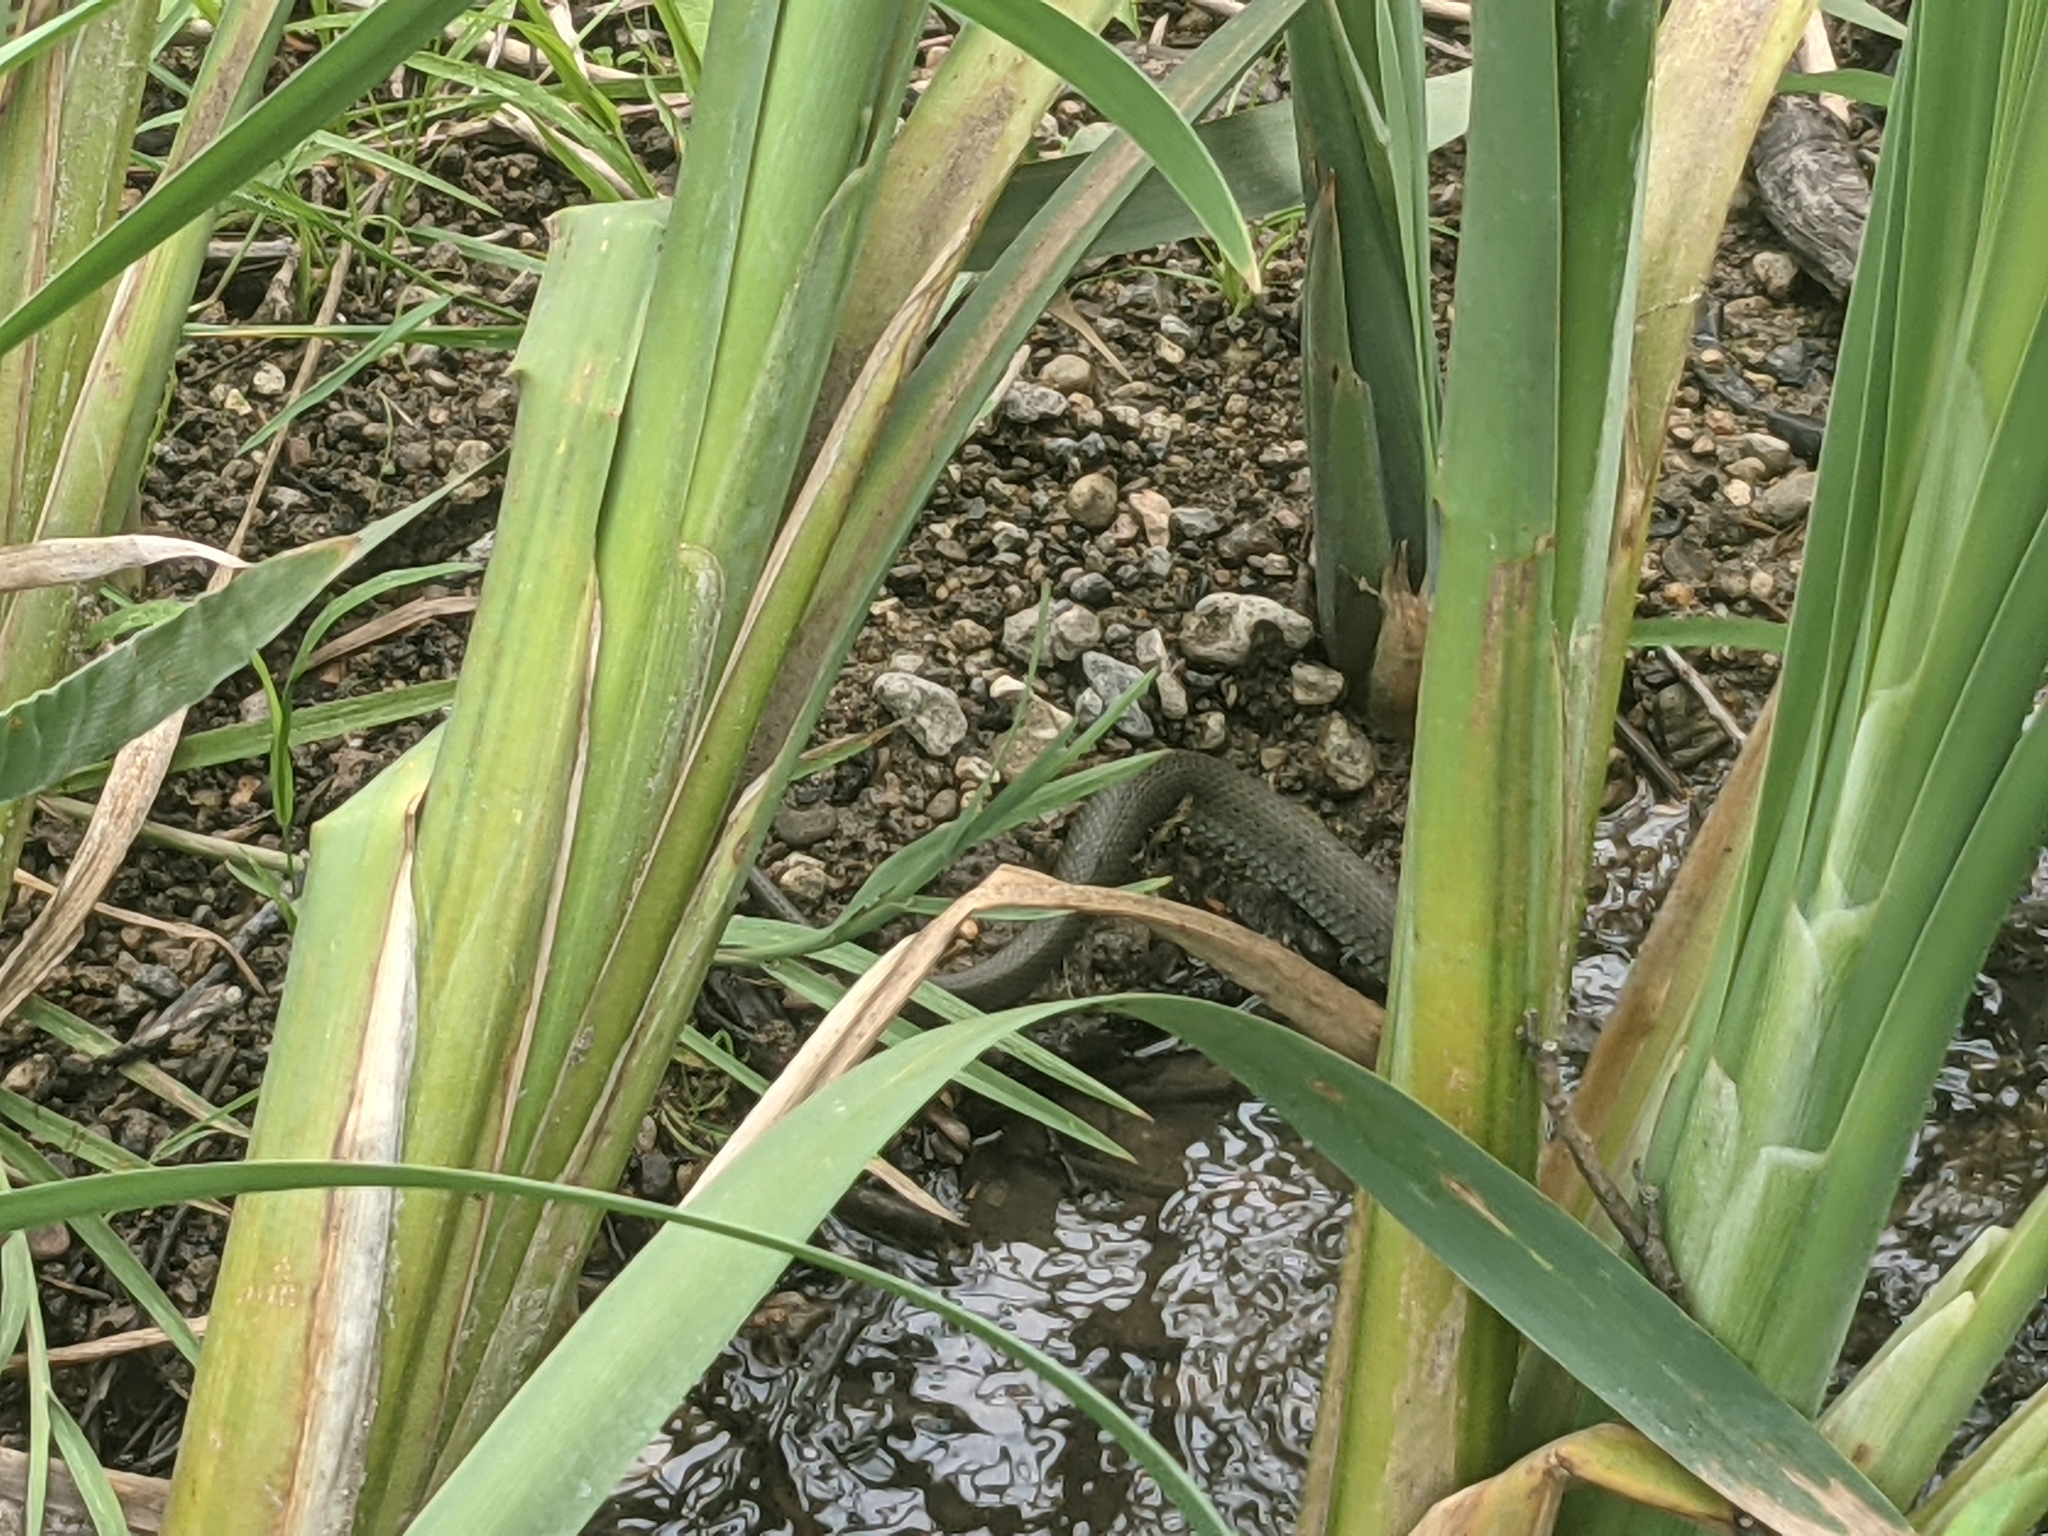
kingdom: Animalia
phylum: Chordata
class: Squamata
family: Colubridae
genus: Natrix
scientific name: Natrix natrix
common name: Grass snake
